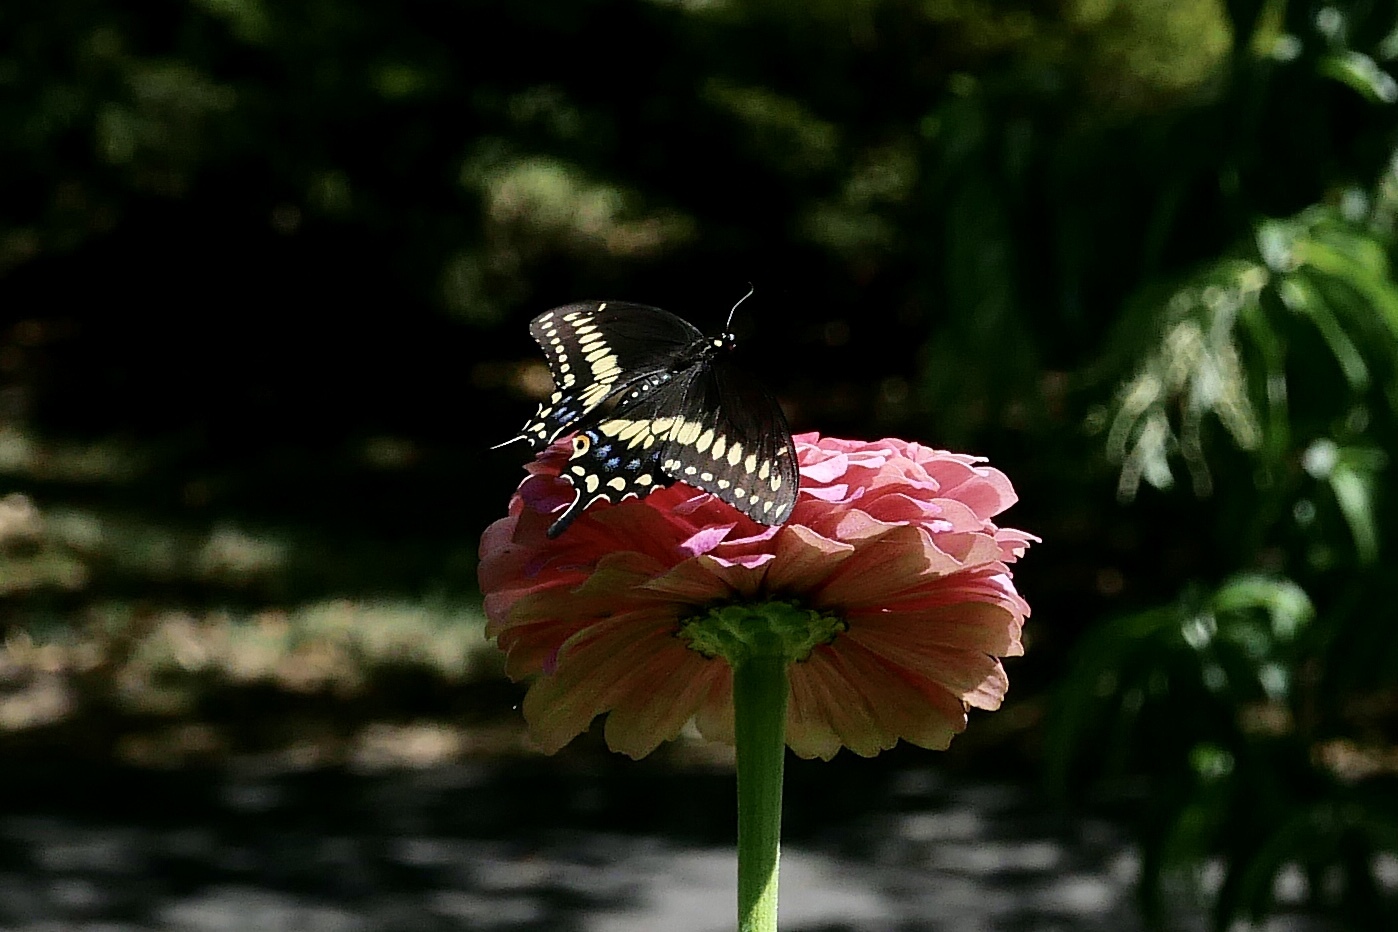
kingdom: Animalia
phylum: Arthropoda
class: Insecta
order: Lepidoptera
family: Papilionidae
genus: Papilio
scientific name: Papilio polyxenes
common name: Black swallowtail
